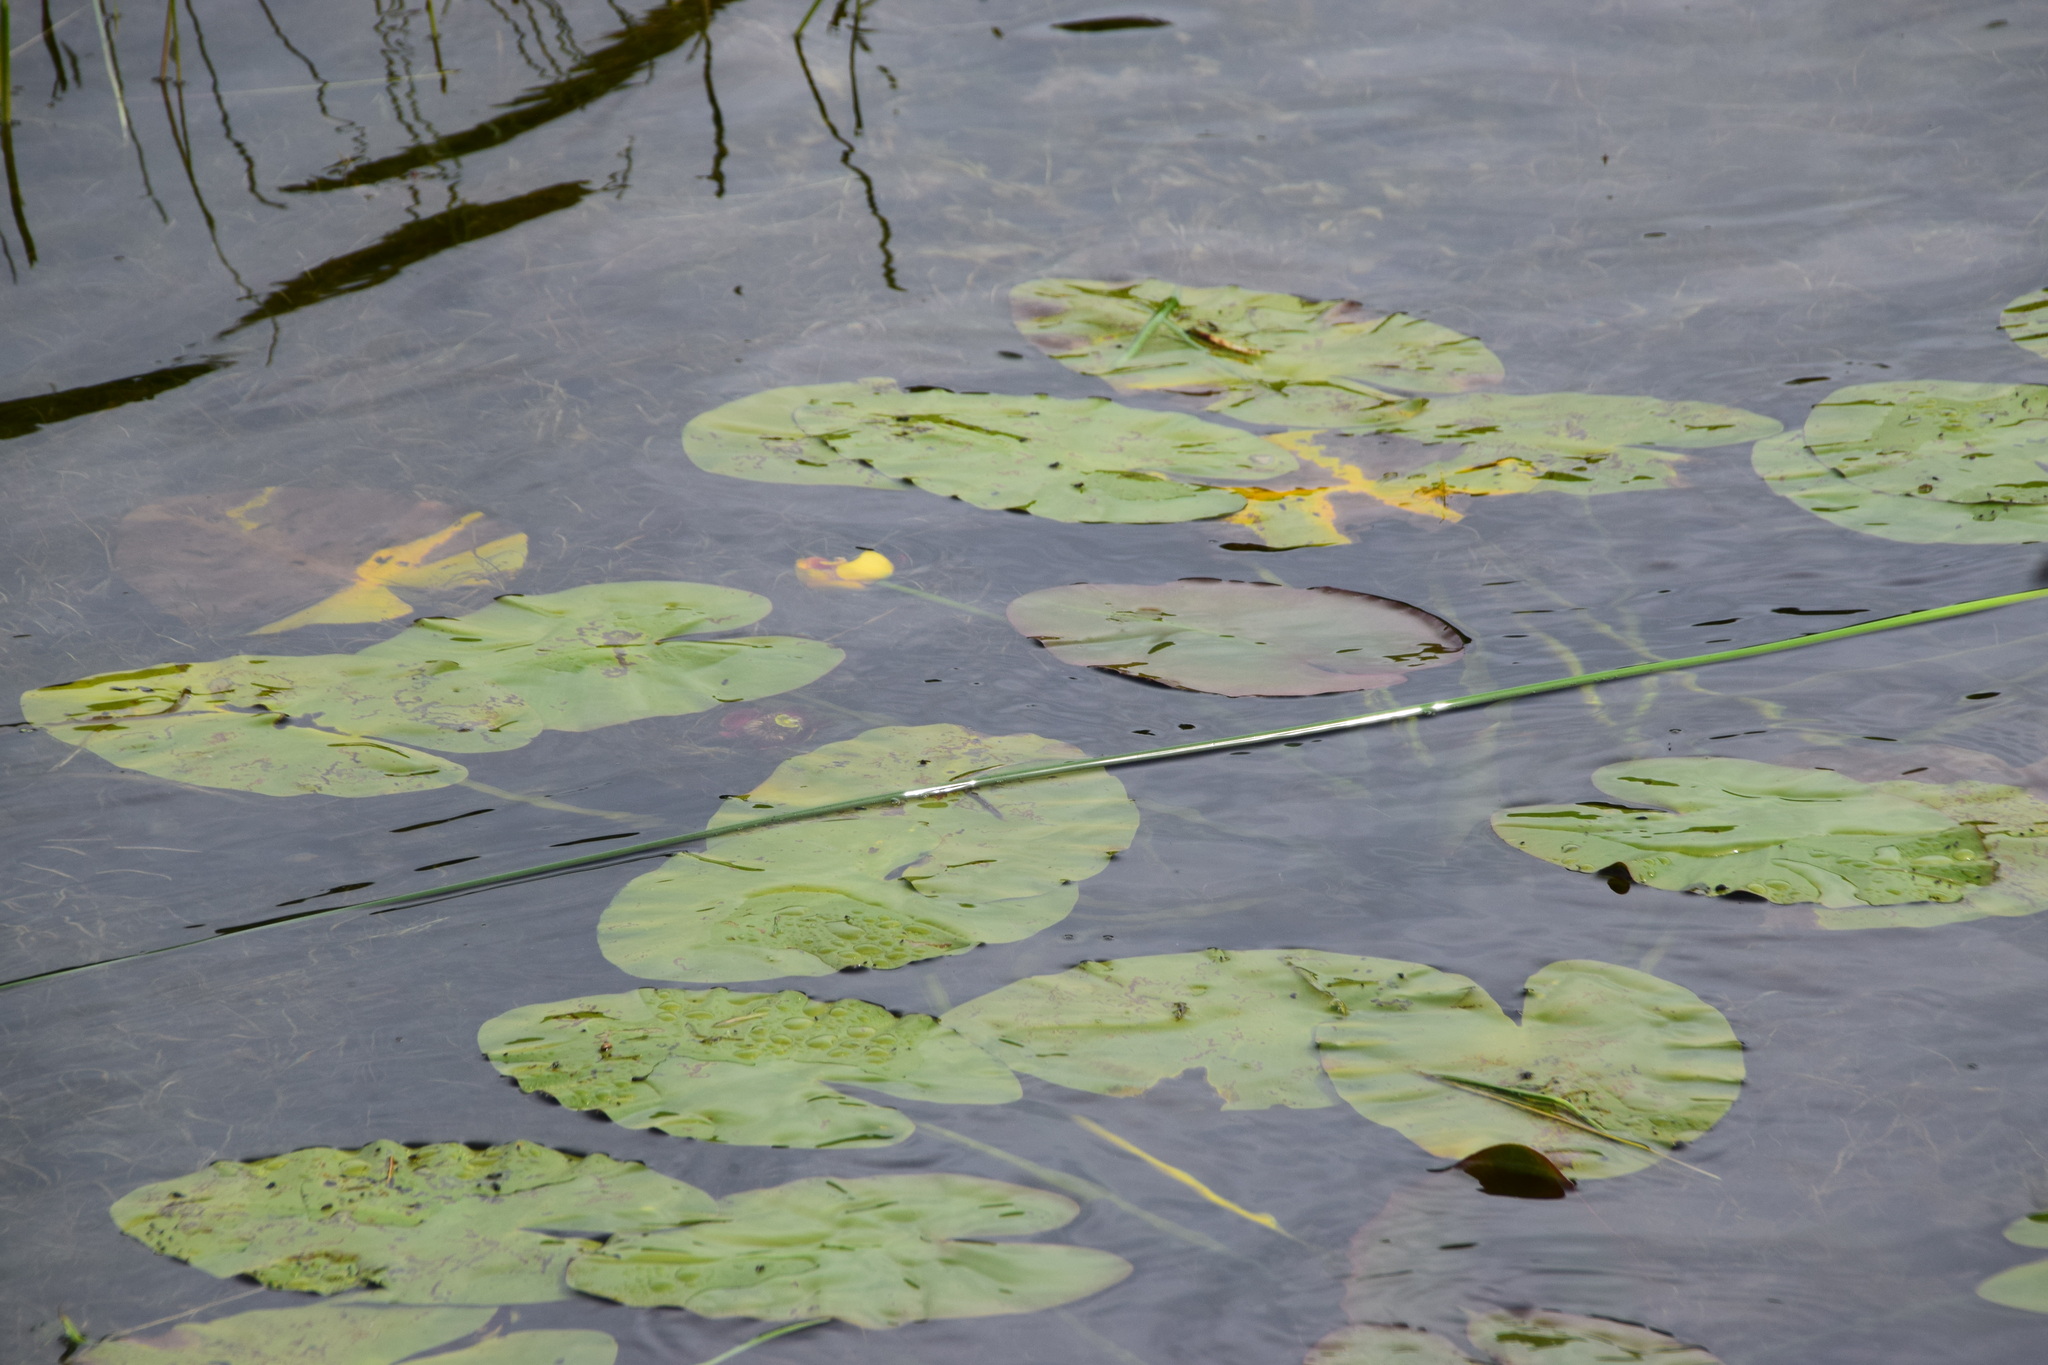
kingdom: Plantae
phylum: Tracheophyta
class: Magnoliopsida
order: Nymphaeales
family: Nymphaeaceae
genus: Nuphar
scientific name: Nuphar variegata
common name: Beaver-root
